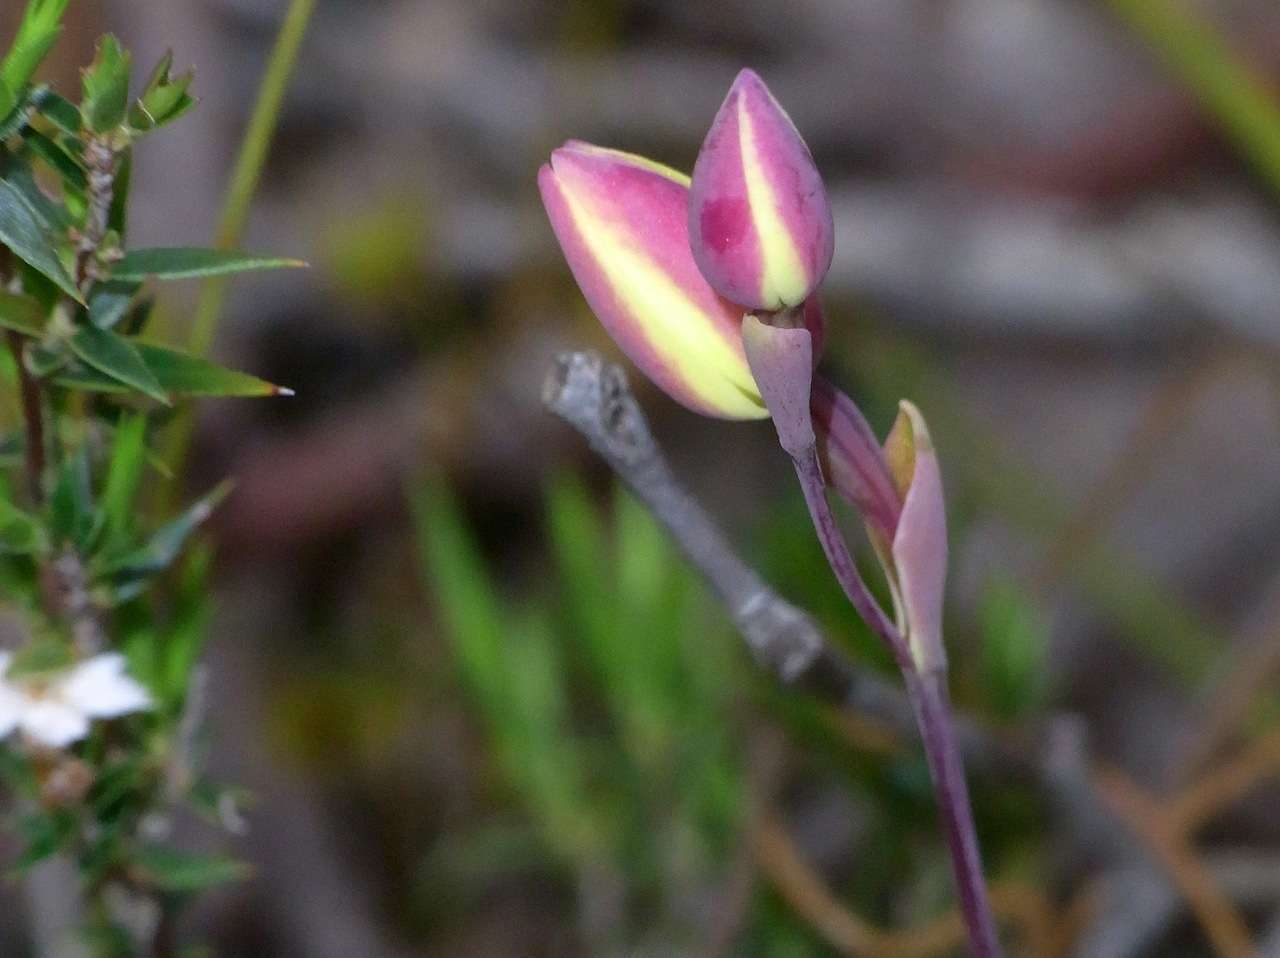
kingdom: Plantae
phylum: Tracheophyta
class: Liliopsida
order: Asparagales
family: Orchidaceae
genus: Thelymitra
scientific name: Thelymitra antennifera
